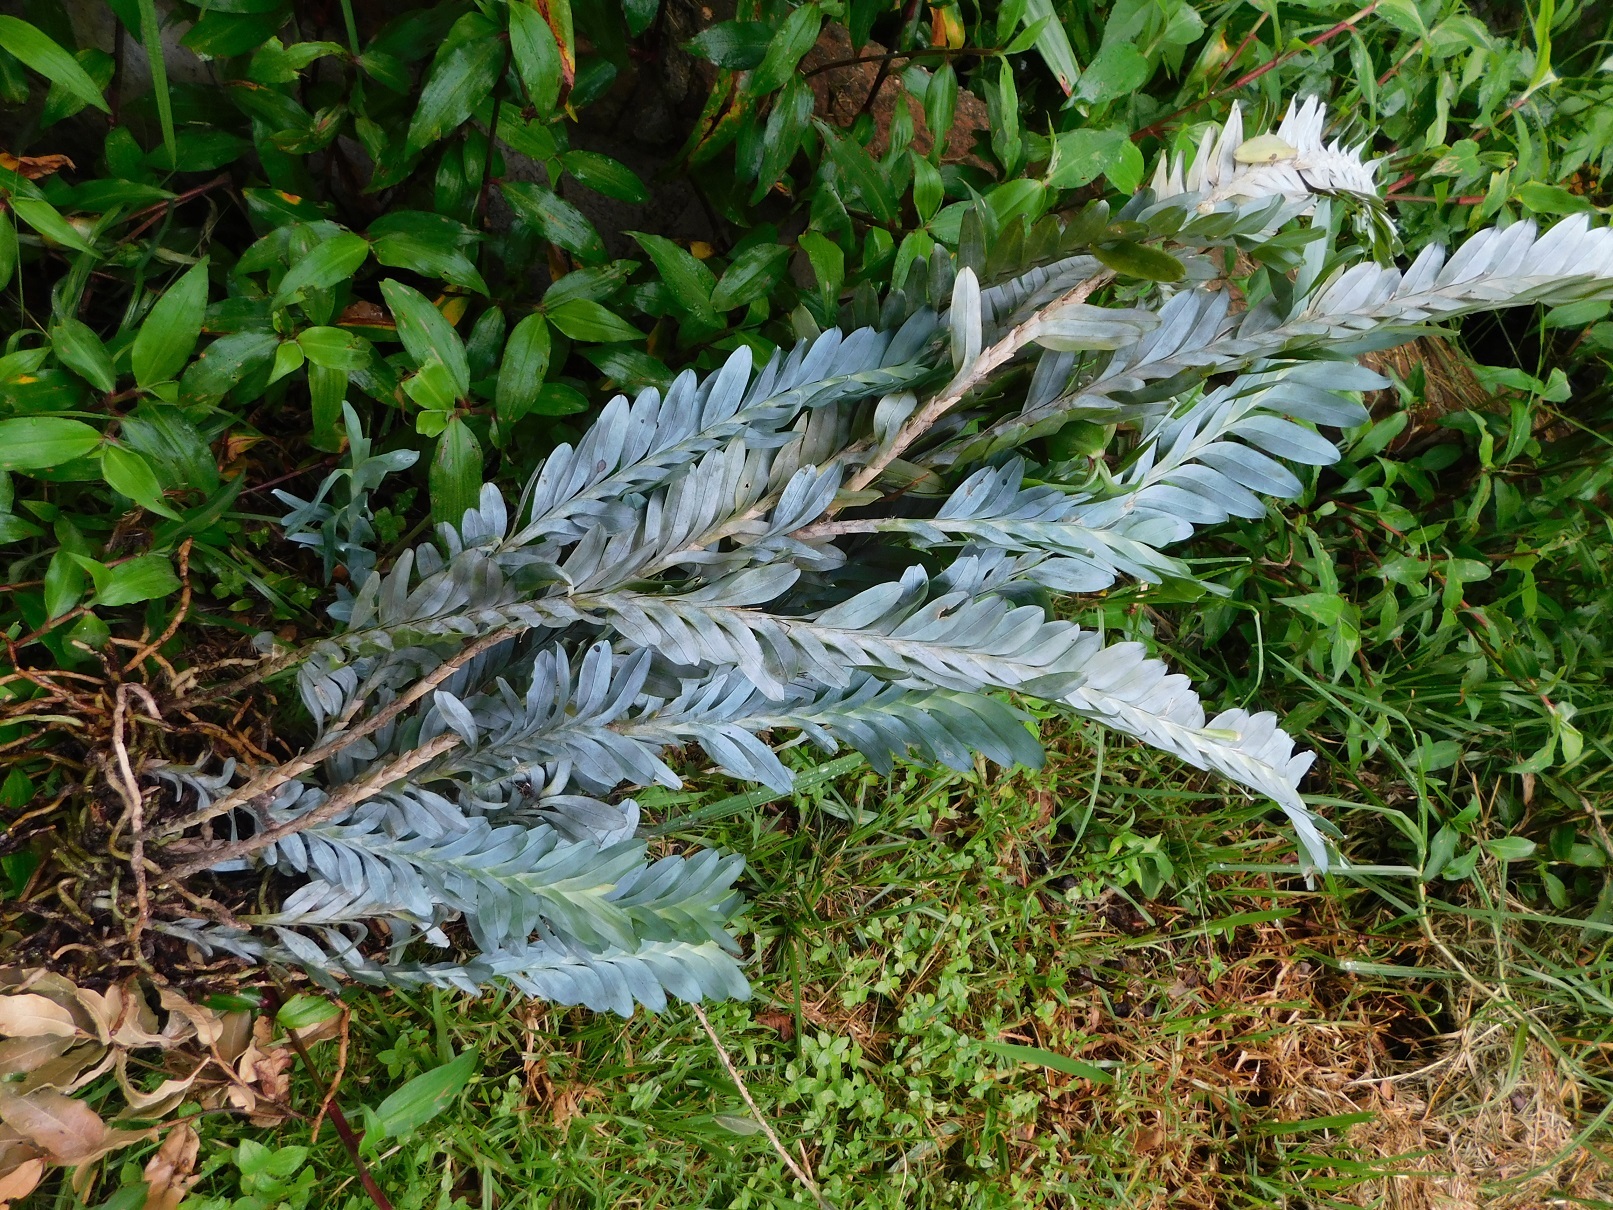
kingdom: Plantae
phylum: Tracheophyta
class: Liliopsida
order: Asparagales
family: Orchidaceae
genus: Dichaea
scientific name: Dichaea glauca
